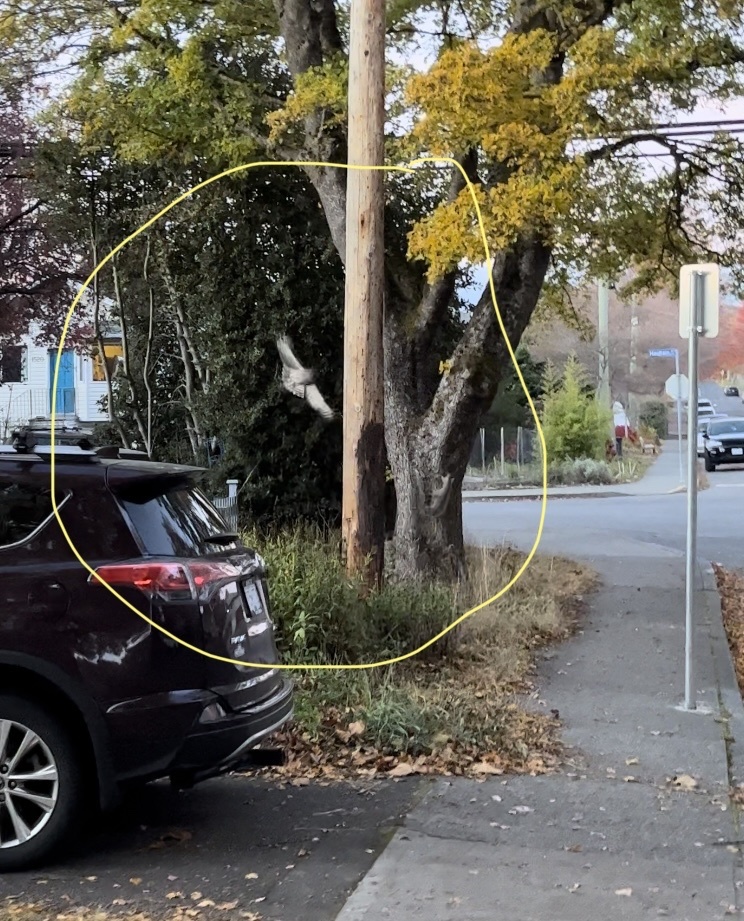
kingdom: Animalia
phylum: Chordata
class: Aves
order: Strigiformes
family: Strigidae
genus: Strix
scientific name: Strix varia
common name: Barred owl
